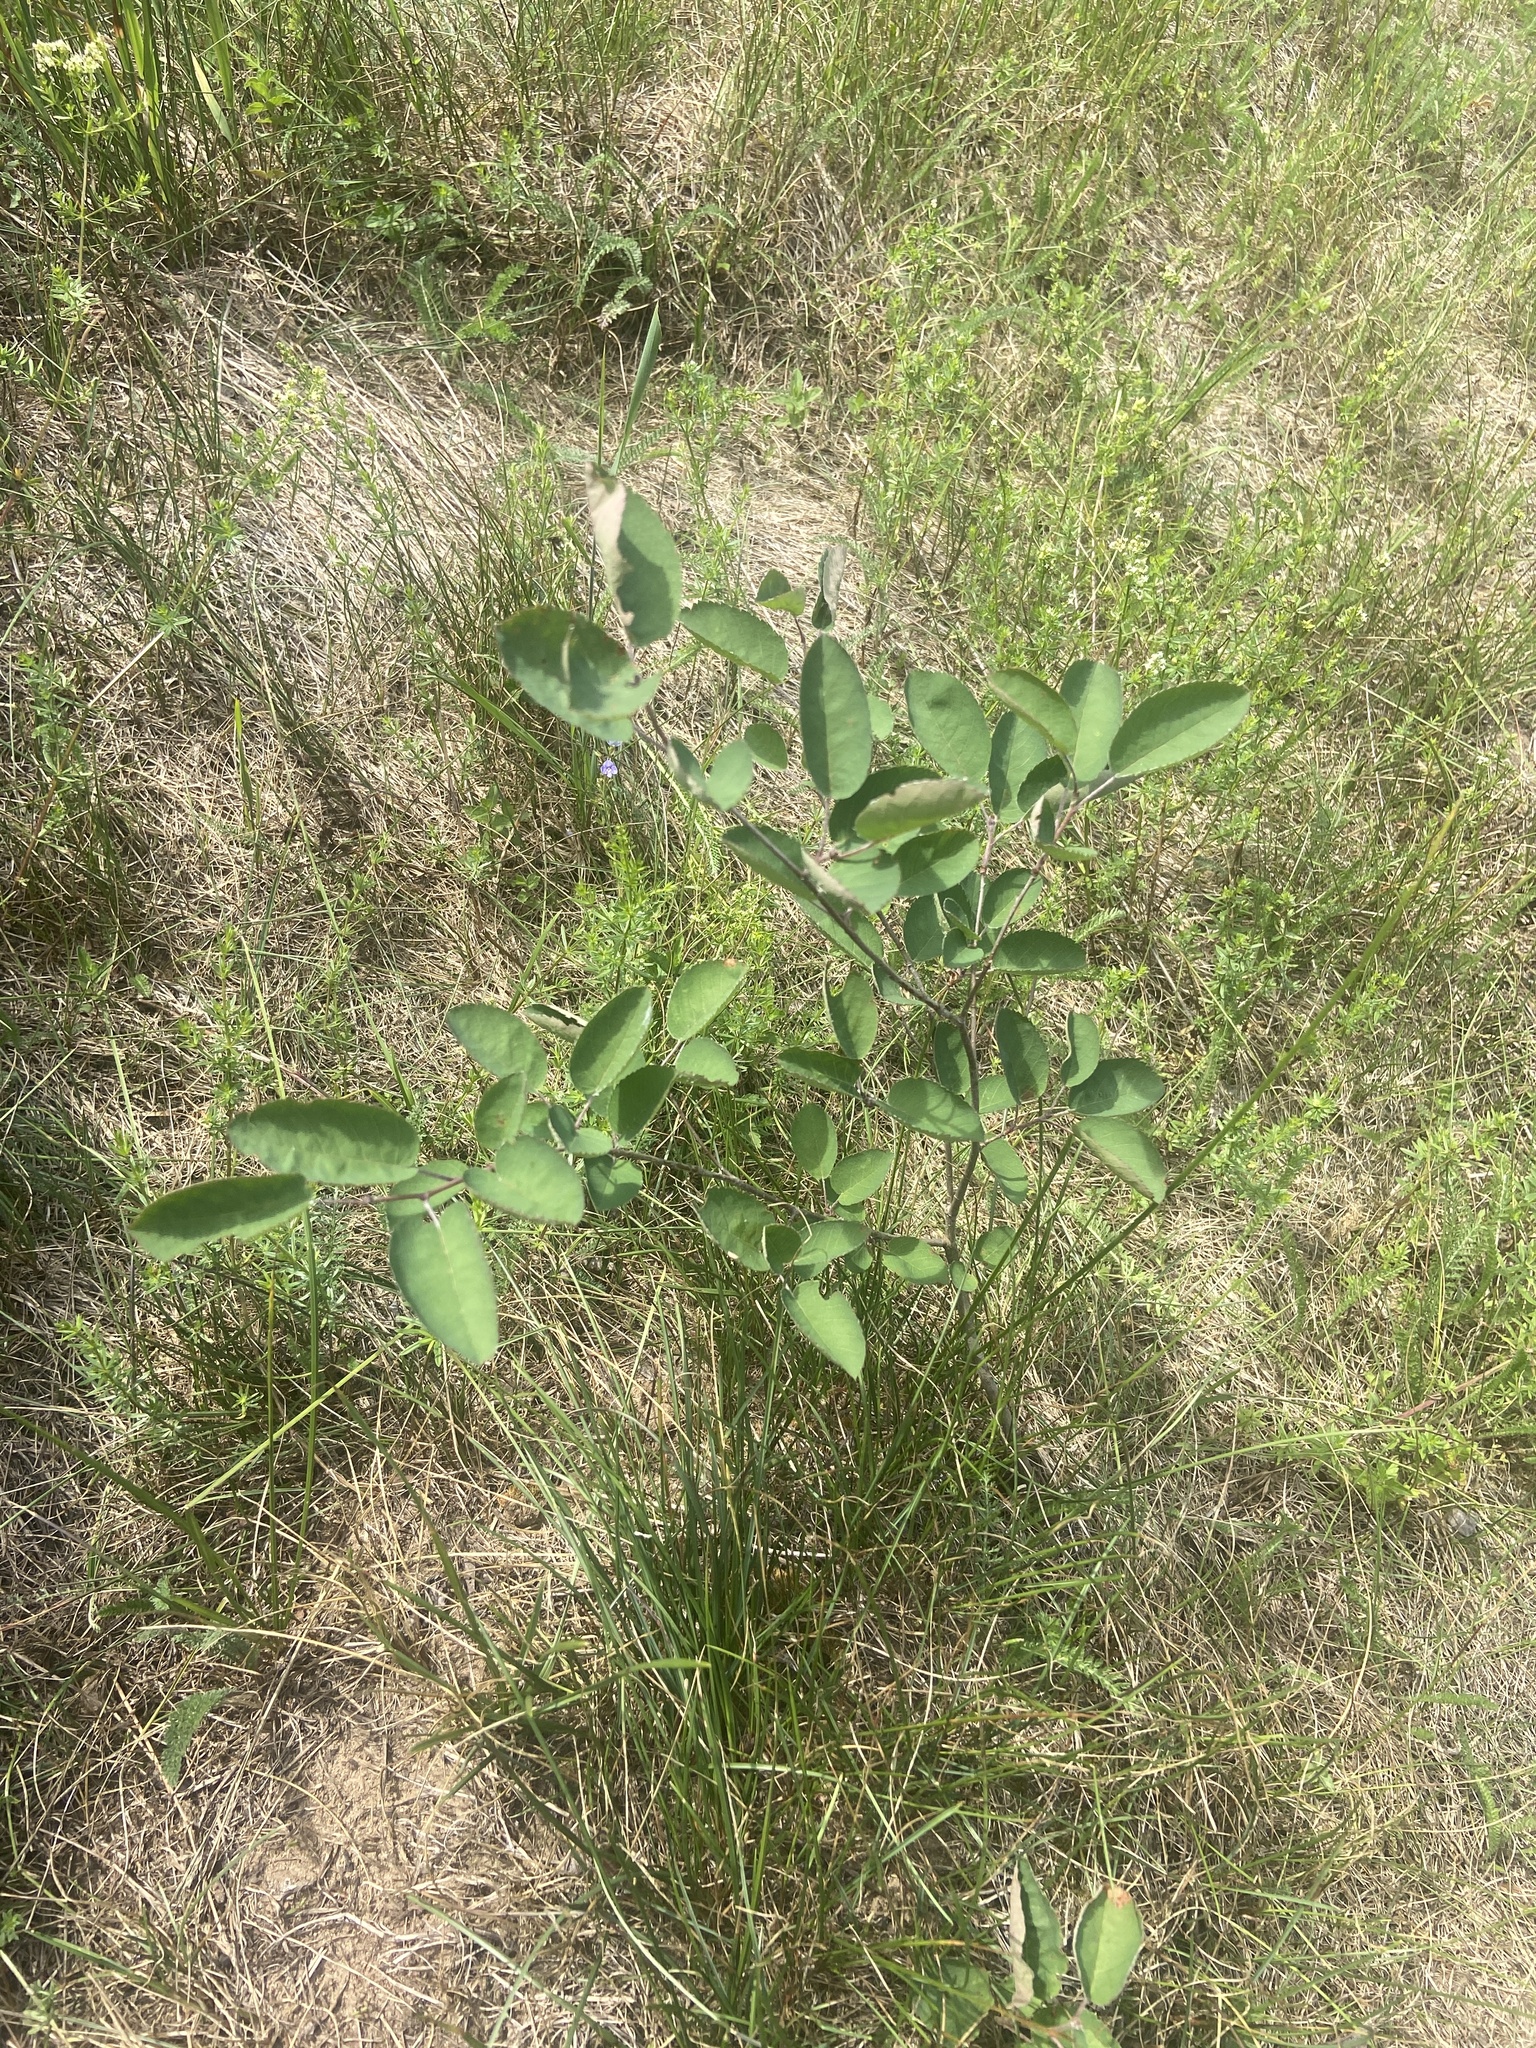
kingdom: Plantae
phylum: Tracheophyta
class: Magnoliopsida
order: Rosales
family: Rosaceae
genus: Amelanchier
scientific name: Amelanchier
